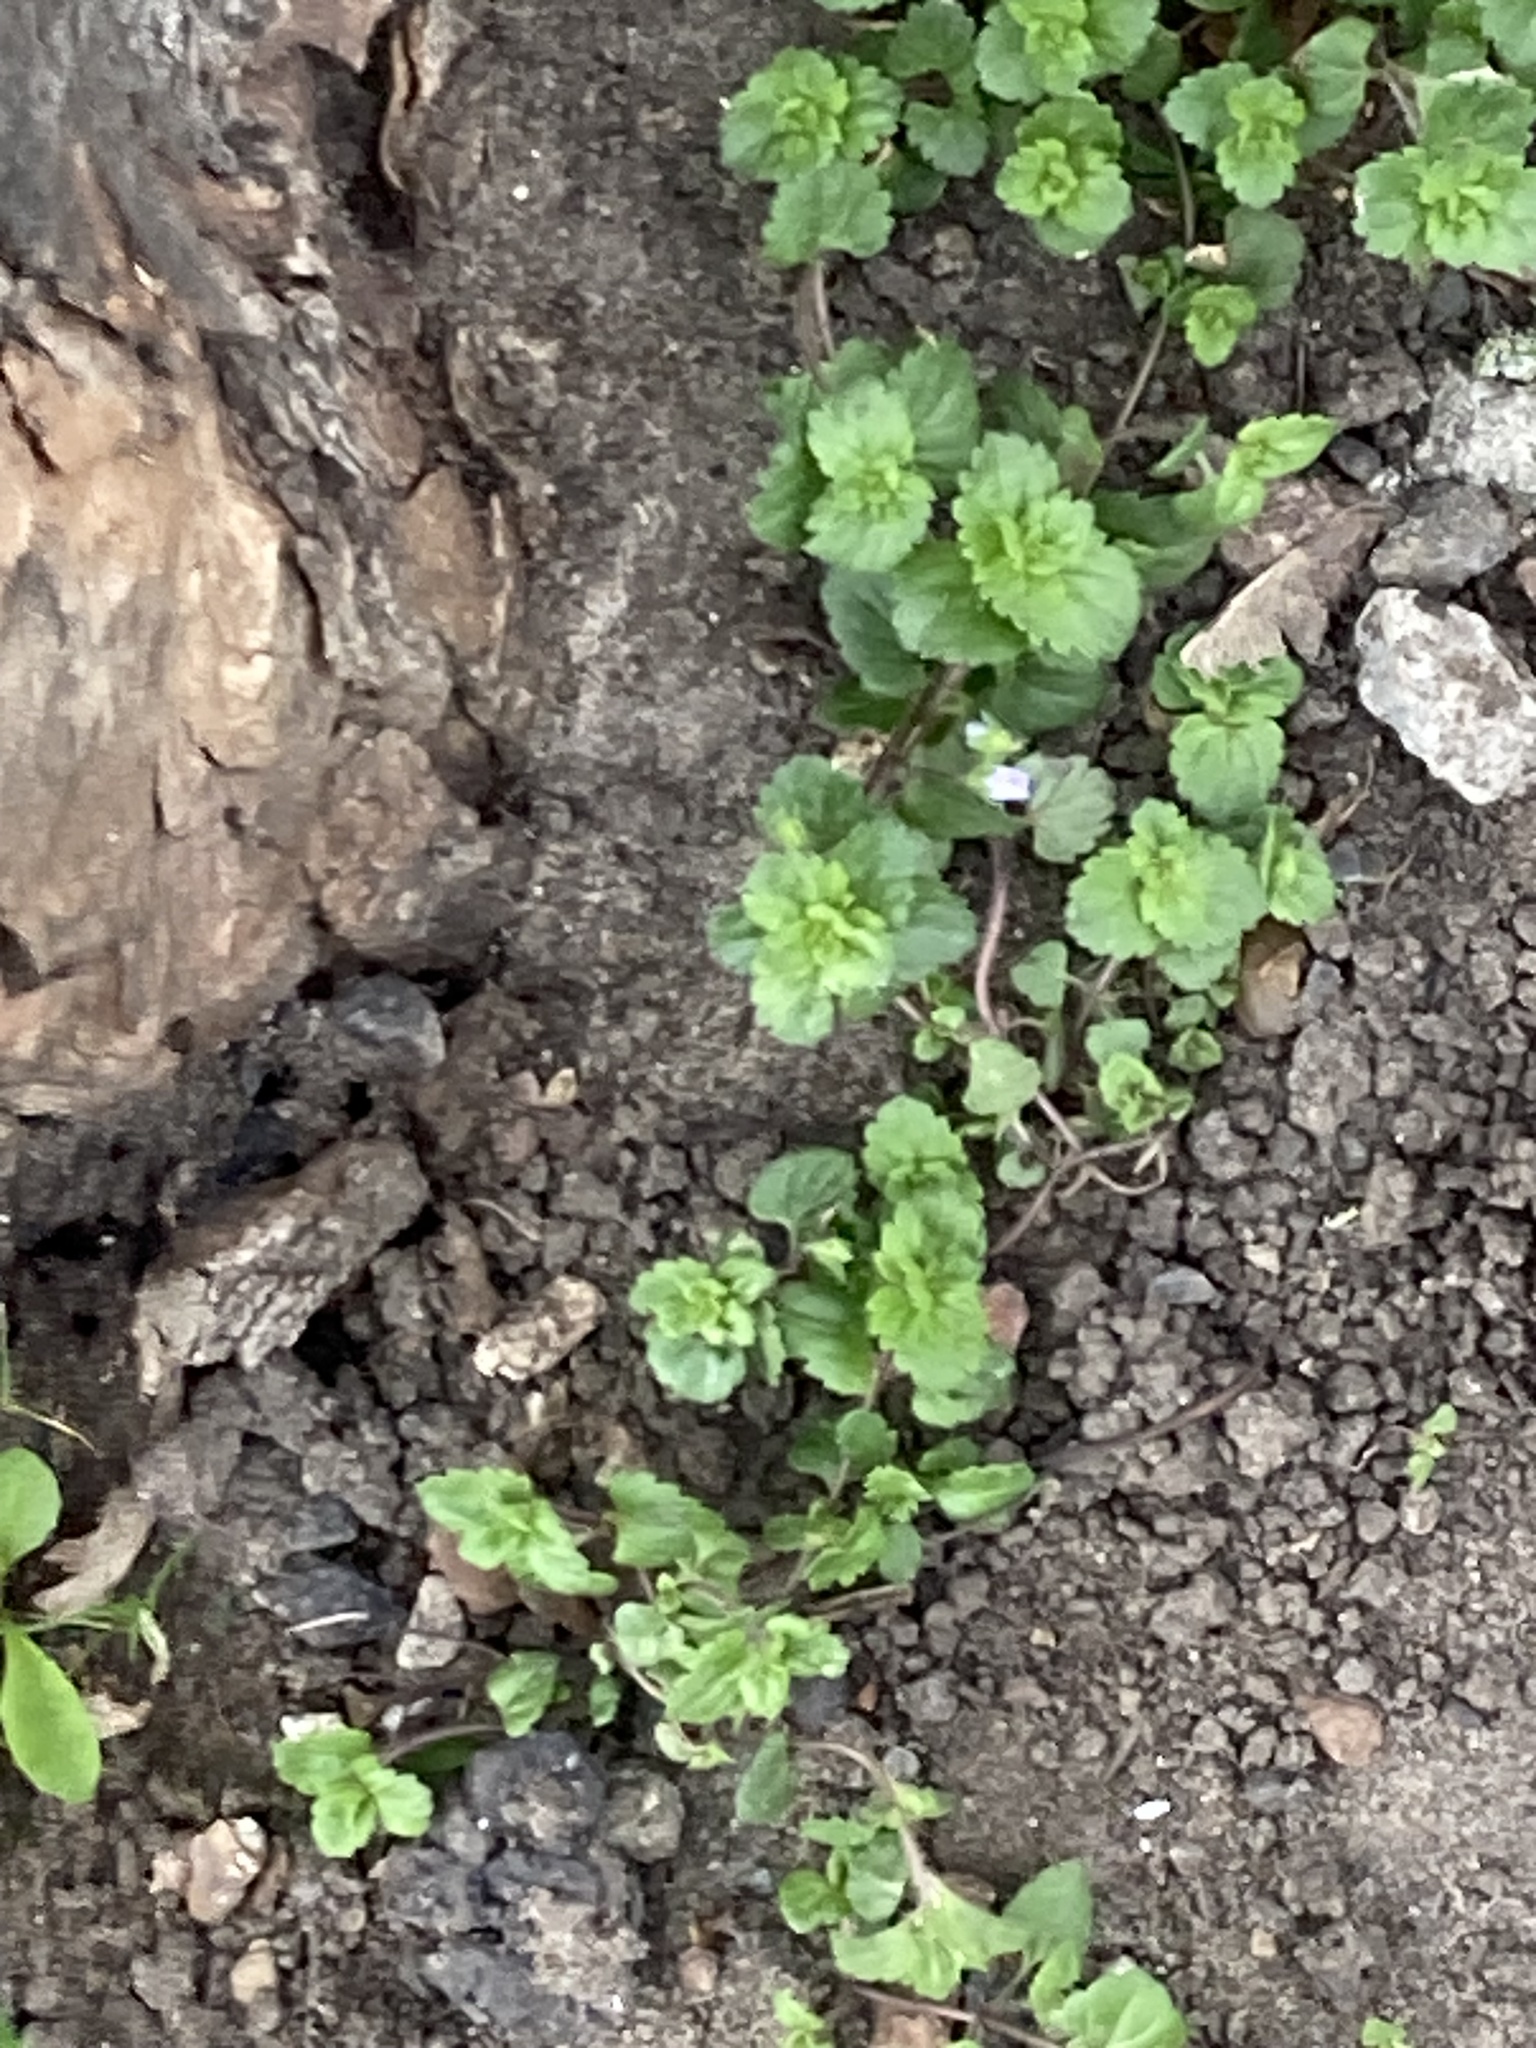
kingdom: Plantae
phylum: Tracheophyta
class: Magnoliopsida
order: Lamiales
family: Plantaginaceae
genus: Veronica
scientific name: Veronica persica
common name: Common field-speedwell
